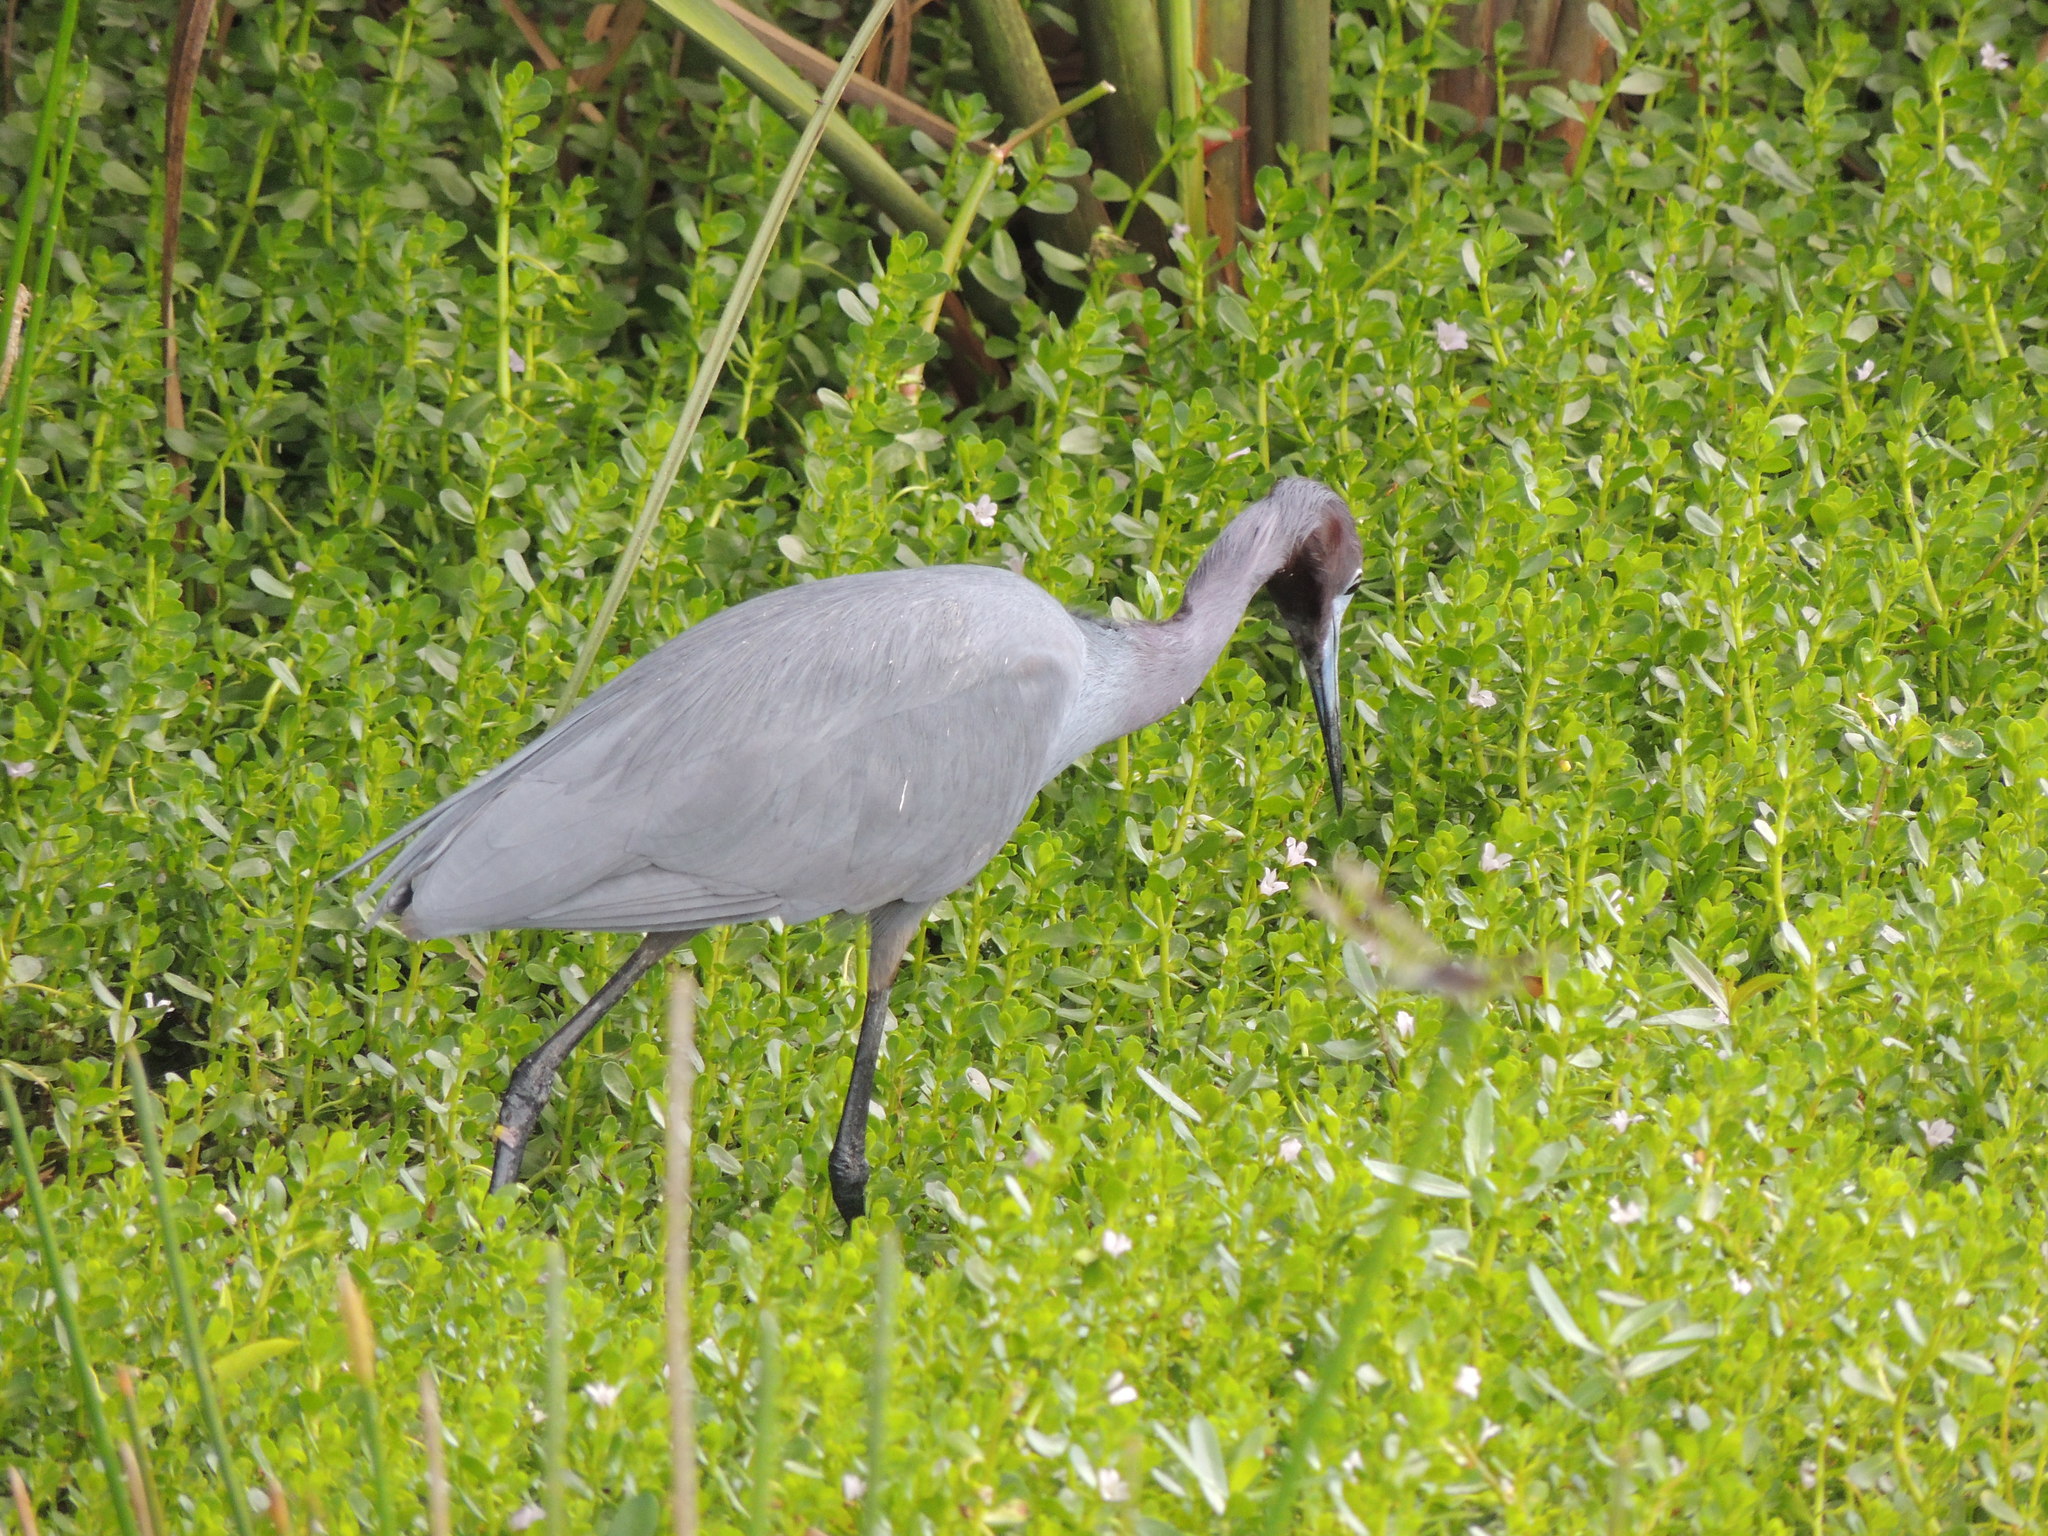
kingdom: Animalia
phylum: Chordata
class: Aves
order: Pelecaniformes
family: Ardeidae
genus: Egretta
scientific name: Egretta caerulea
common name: Little blue heron
